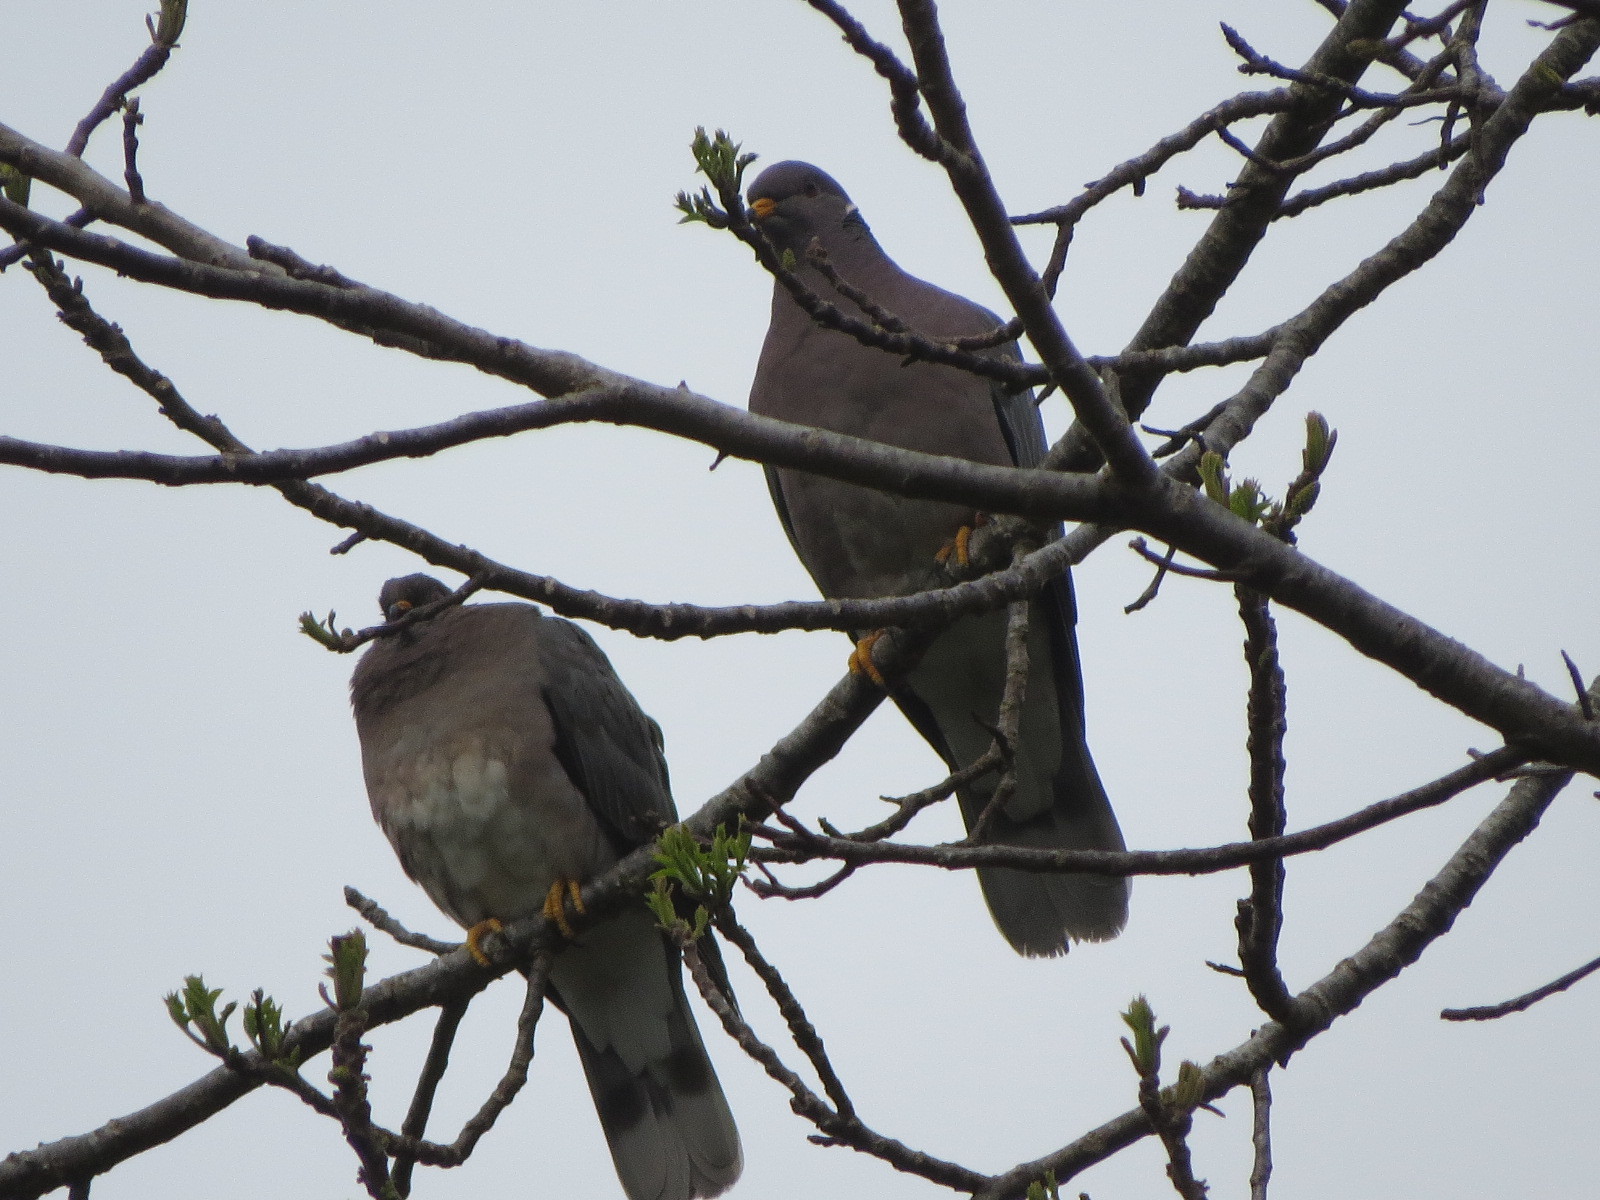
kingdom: Animalia
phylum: Chordata
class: Aves
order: Columbiformes
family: Columbidae
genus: Patagioenas
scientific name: Patagioenas fasciata
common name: Band-tailed pigeon
